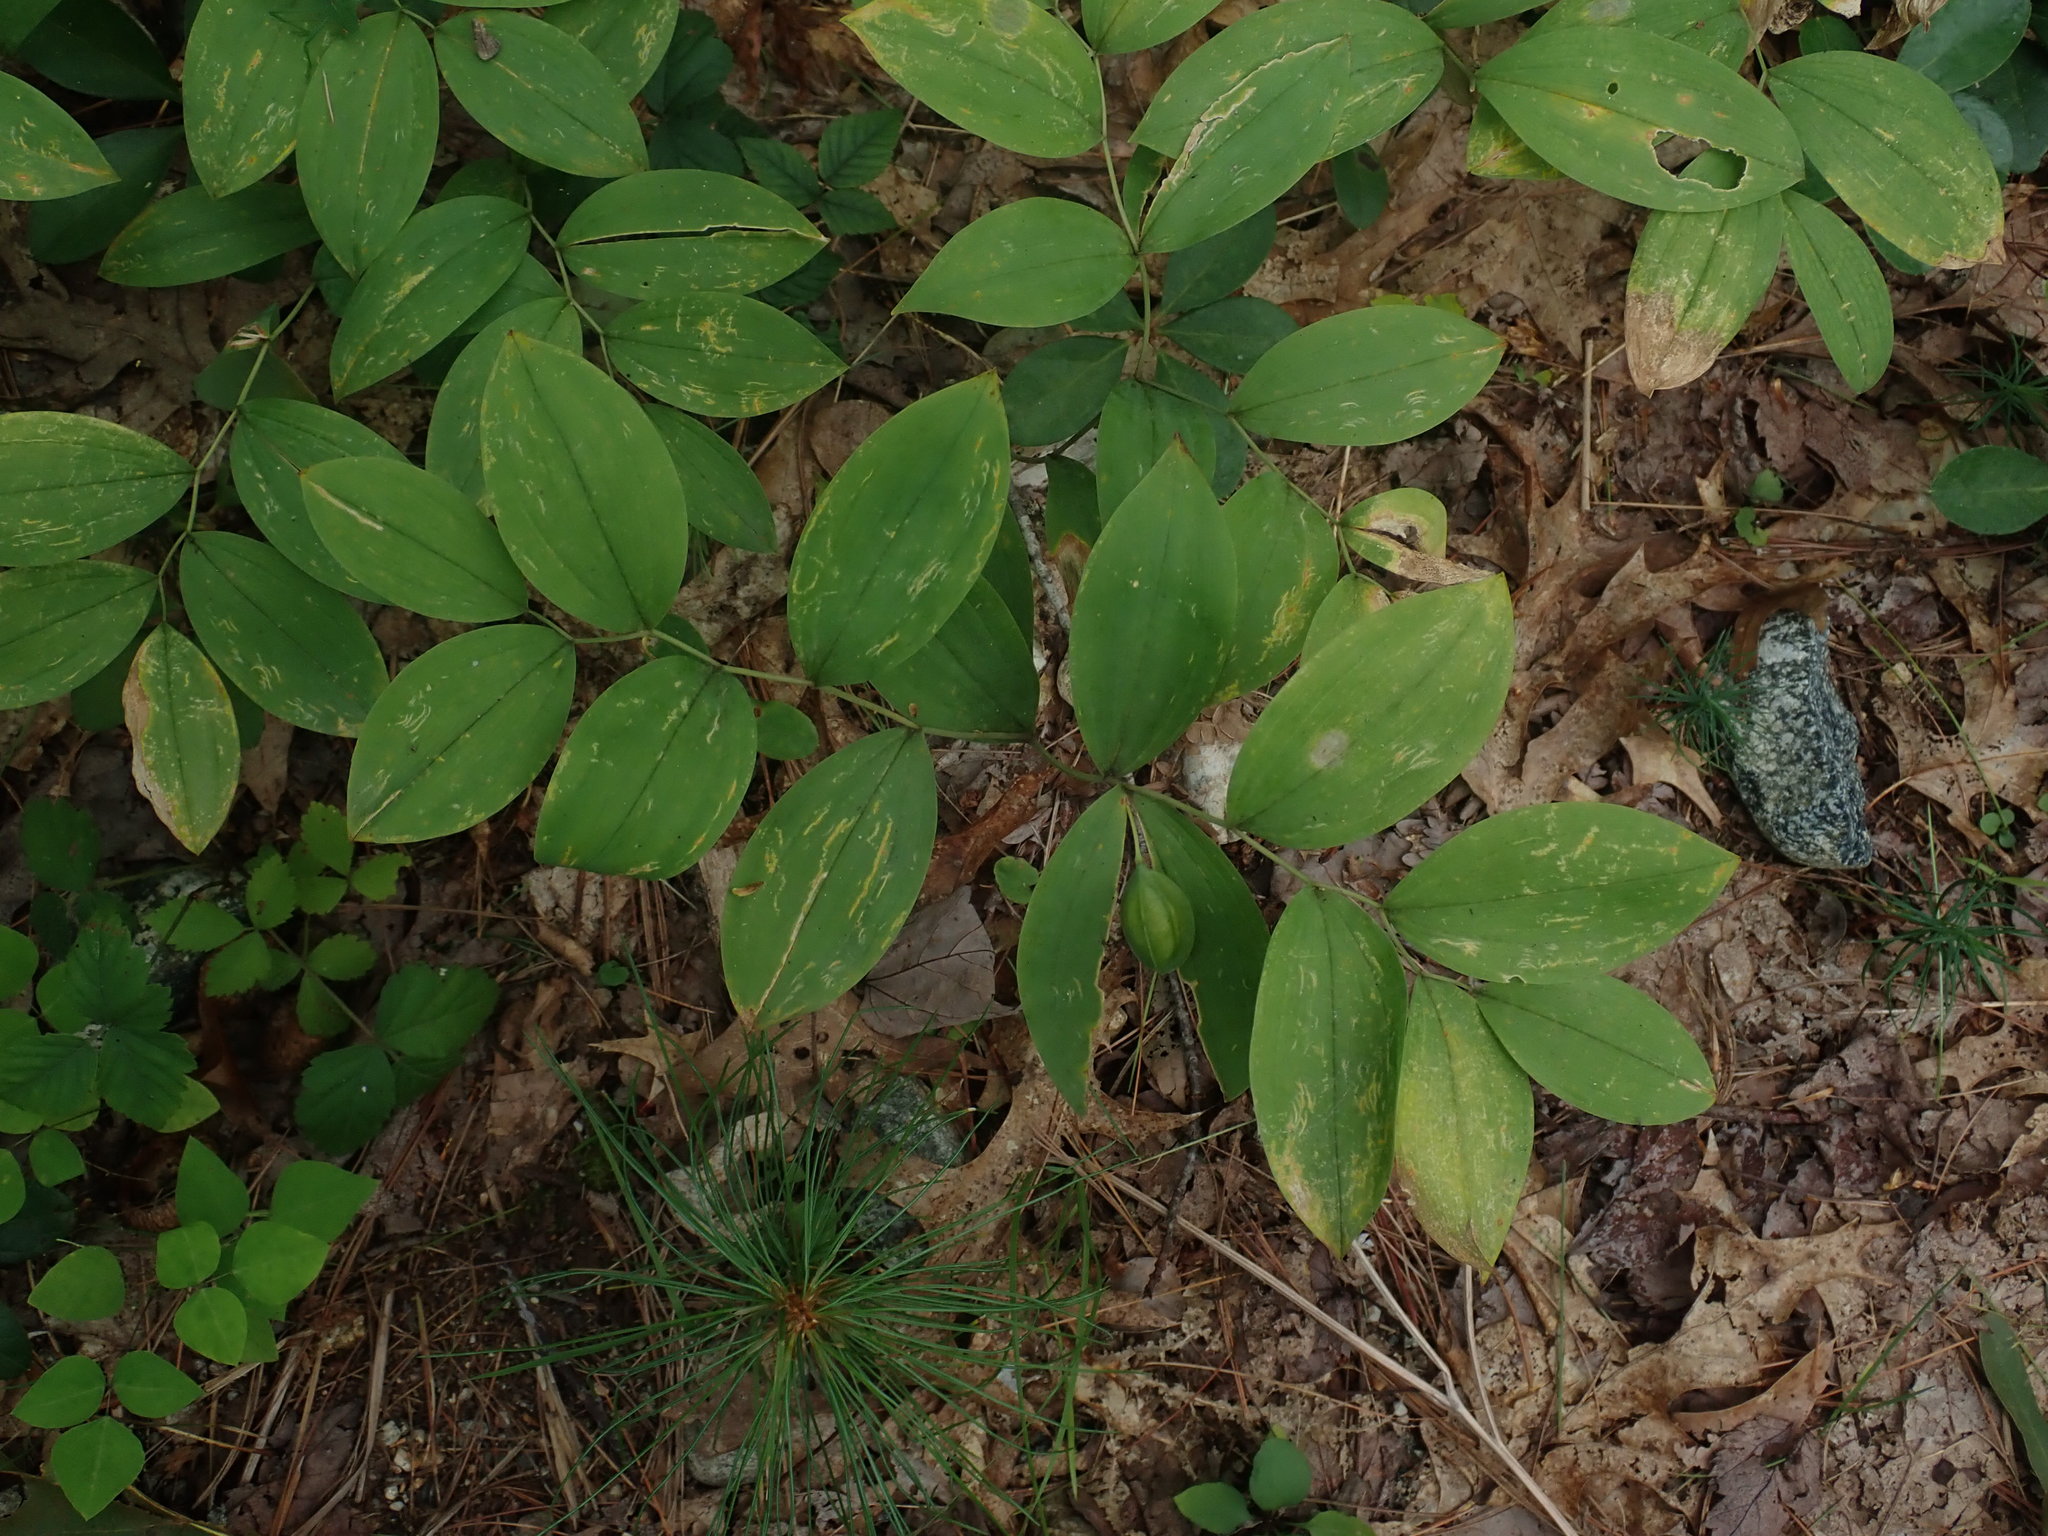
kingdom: Plantae
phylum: Tracheophyta
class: Liliopsida
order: Liliales
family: Colchicaceae
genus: Uvularia
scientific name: Uvularia sessilifolia
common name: Straw-lily
